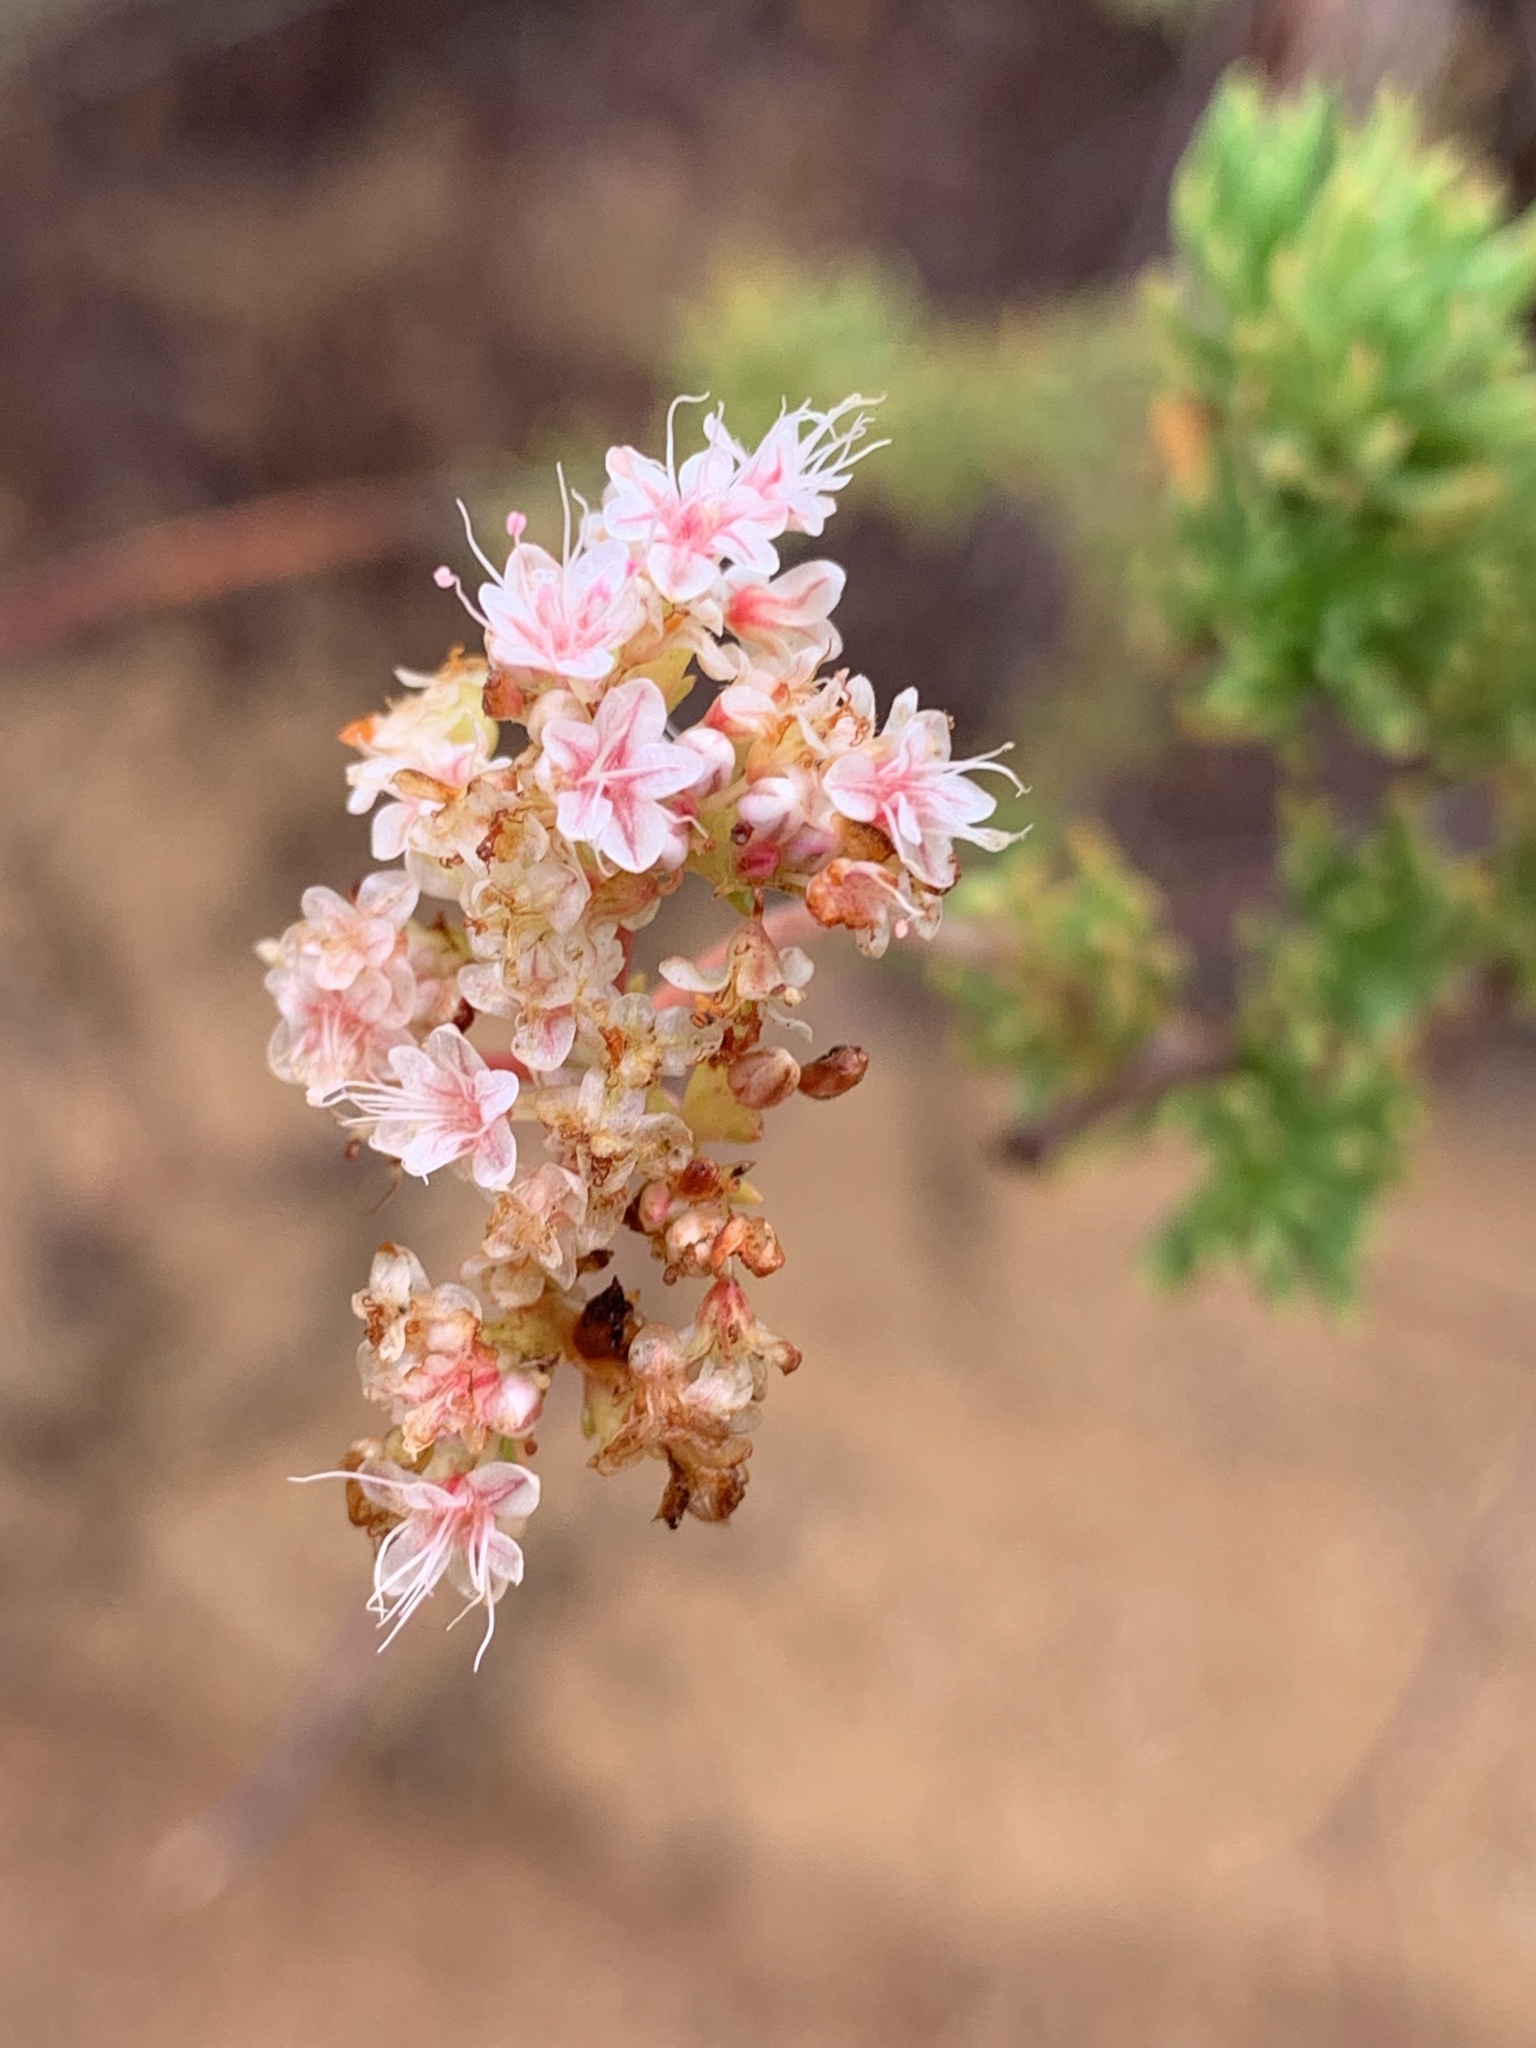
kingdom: Plantae
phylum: Tracheophyta
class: Magnoliopsida
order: Caryophyllales
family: Polygonaceae
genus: Eriogonum
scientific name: Eriogonum fasciculatum
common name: California wild buckwheat
